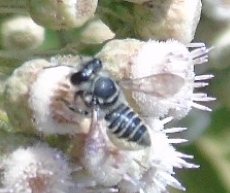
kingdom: Animalia
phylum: Arthropoda
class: Insecta
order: Hymenoptera
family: Megachilidae
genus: Megachile
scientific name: Megachile
